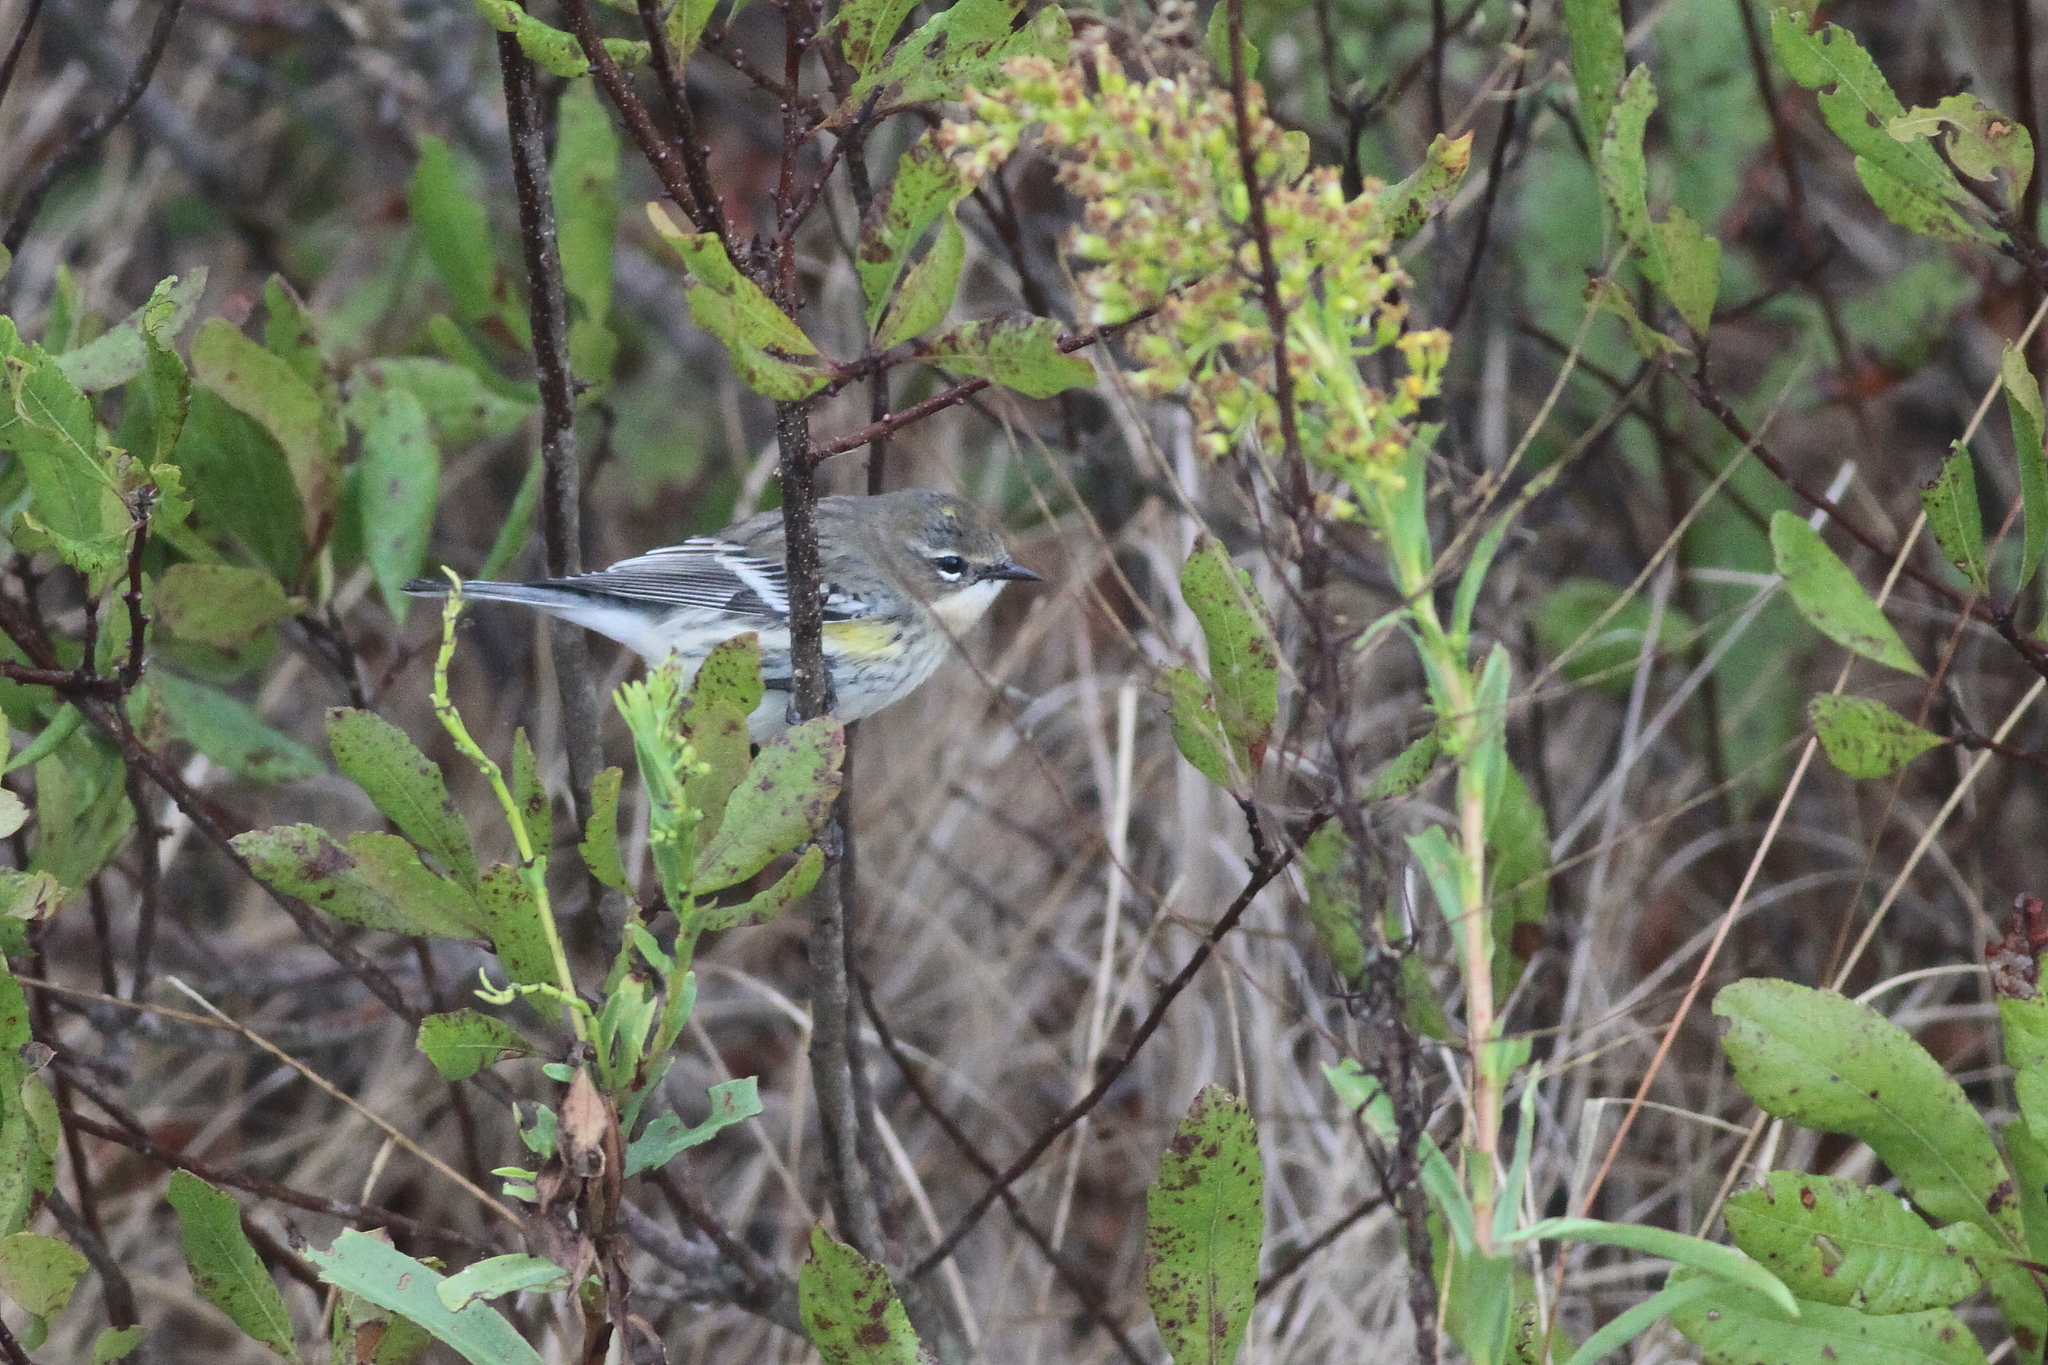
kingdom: Animalia
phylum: Chordata
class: Aves
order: Passeriformes
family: Parulidae
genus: Setophaga
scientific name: Setophaga coronata
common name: Myrtle warbler
